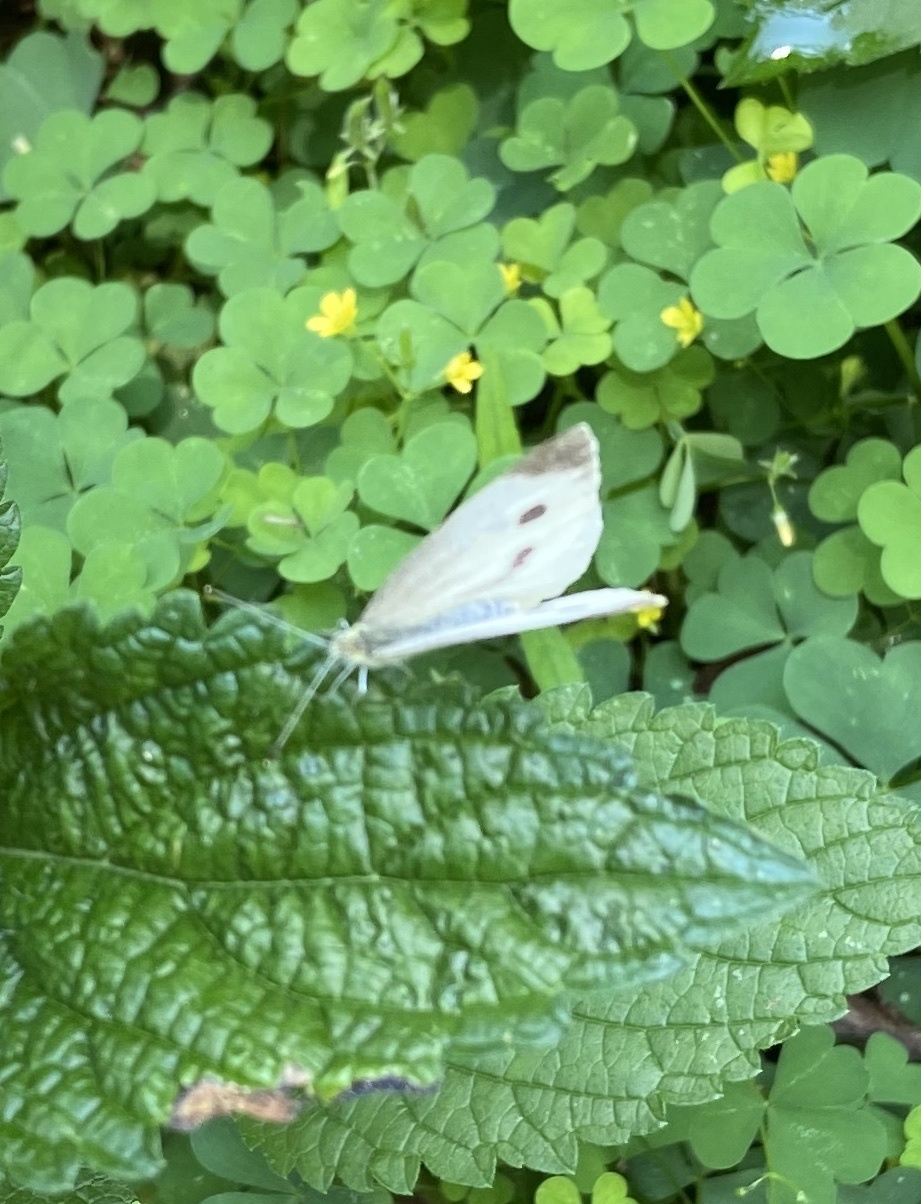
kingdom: Animalia
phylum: Arthropoda
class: Insecta
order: Lepidoptera
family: Pieridae
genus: Pieris
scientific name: Pieris rapae
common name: Small white
